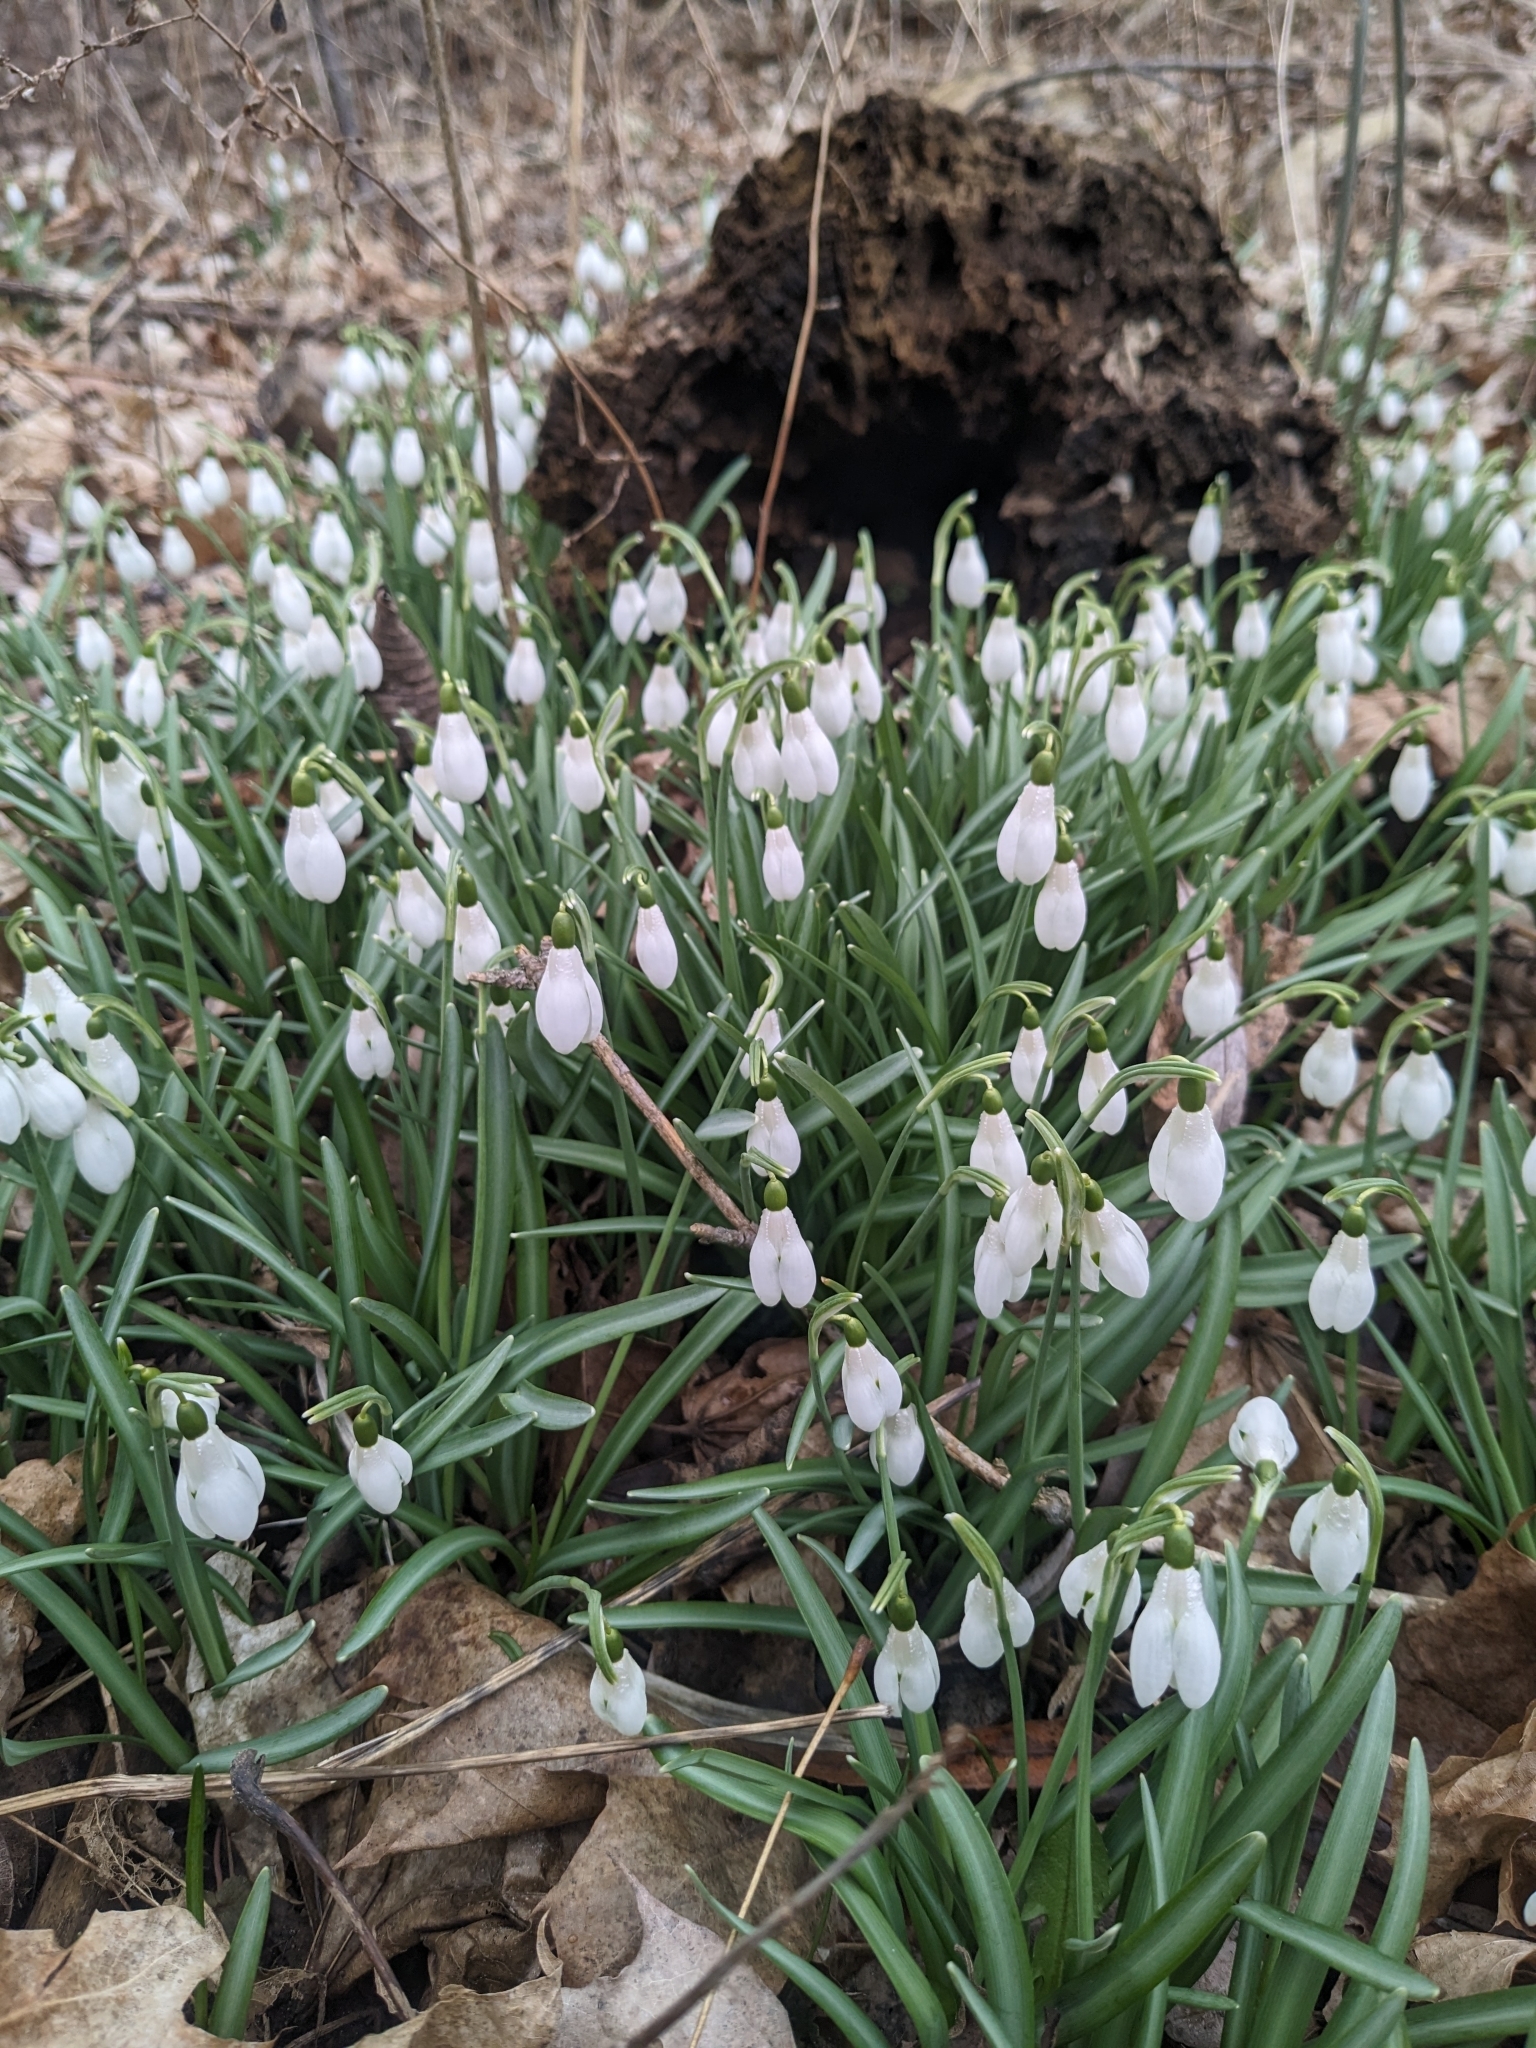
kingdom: Plantae
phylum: Tracheophyta
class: Liliopsida
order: Asparagales
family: Amaryllidaceae
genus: Galanthus
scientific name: Galanthus nivalis
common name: Snowdrop
